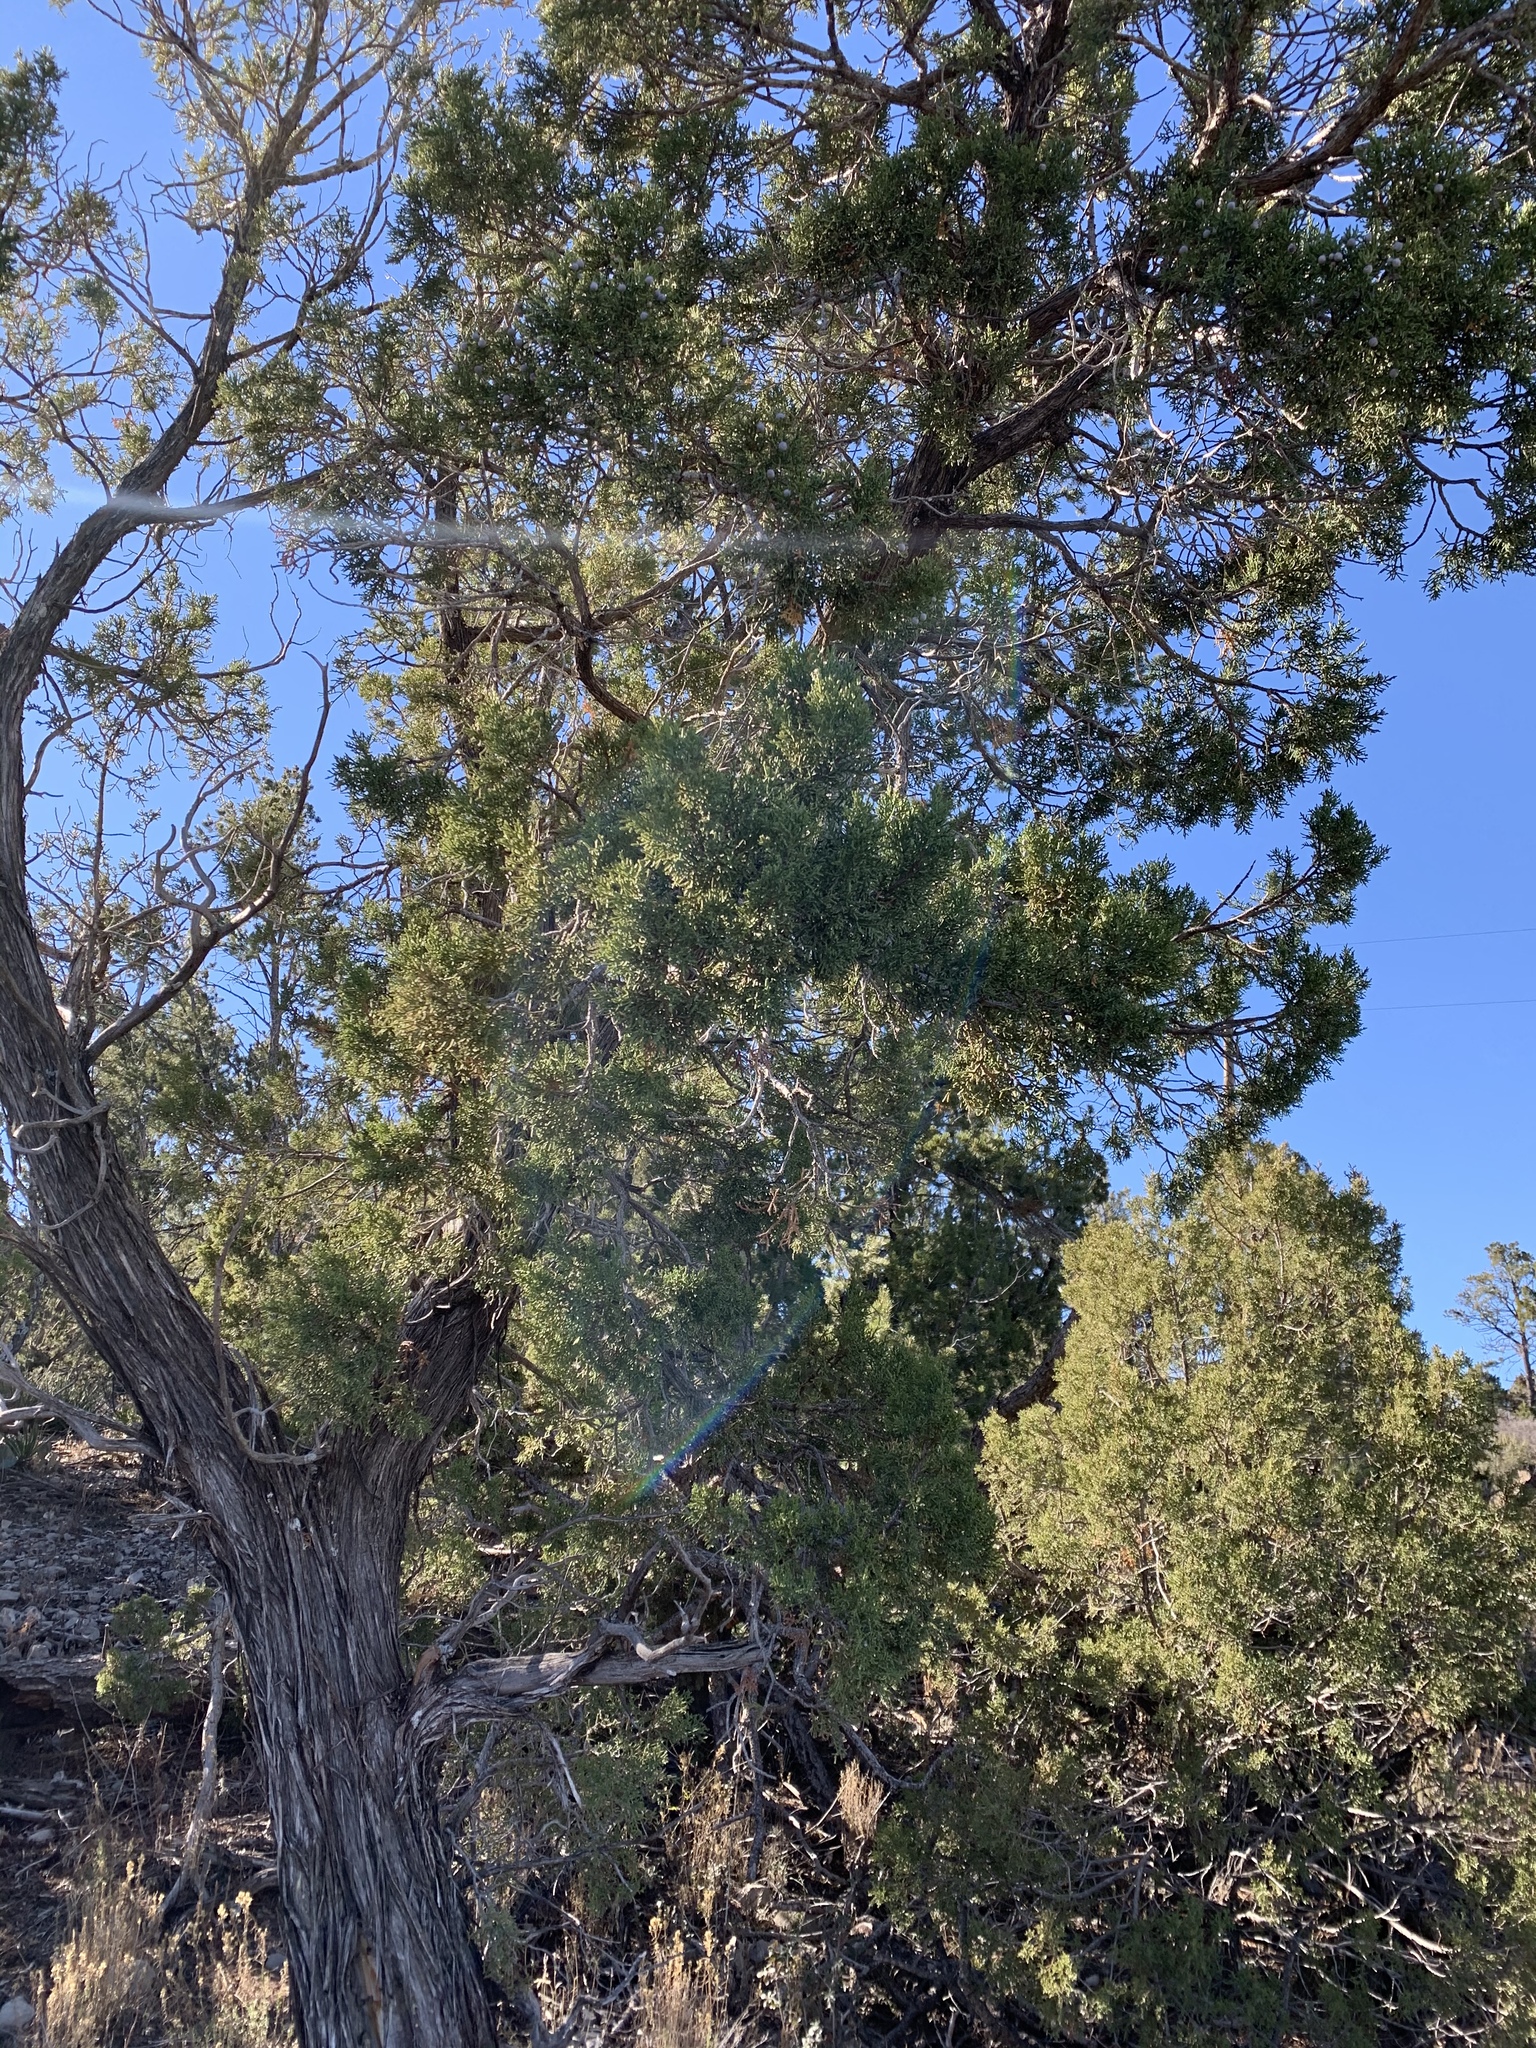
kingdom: Plantae
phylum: Tracheophyta
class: Pinopsida
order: Pinales
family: Cupressaceae
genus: Juniperus
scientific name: Juniperus monosperma
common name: One-seed juniper
